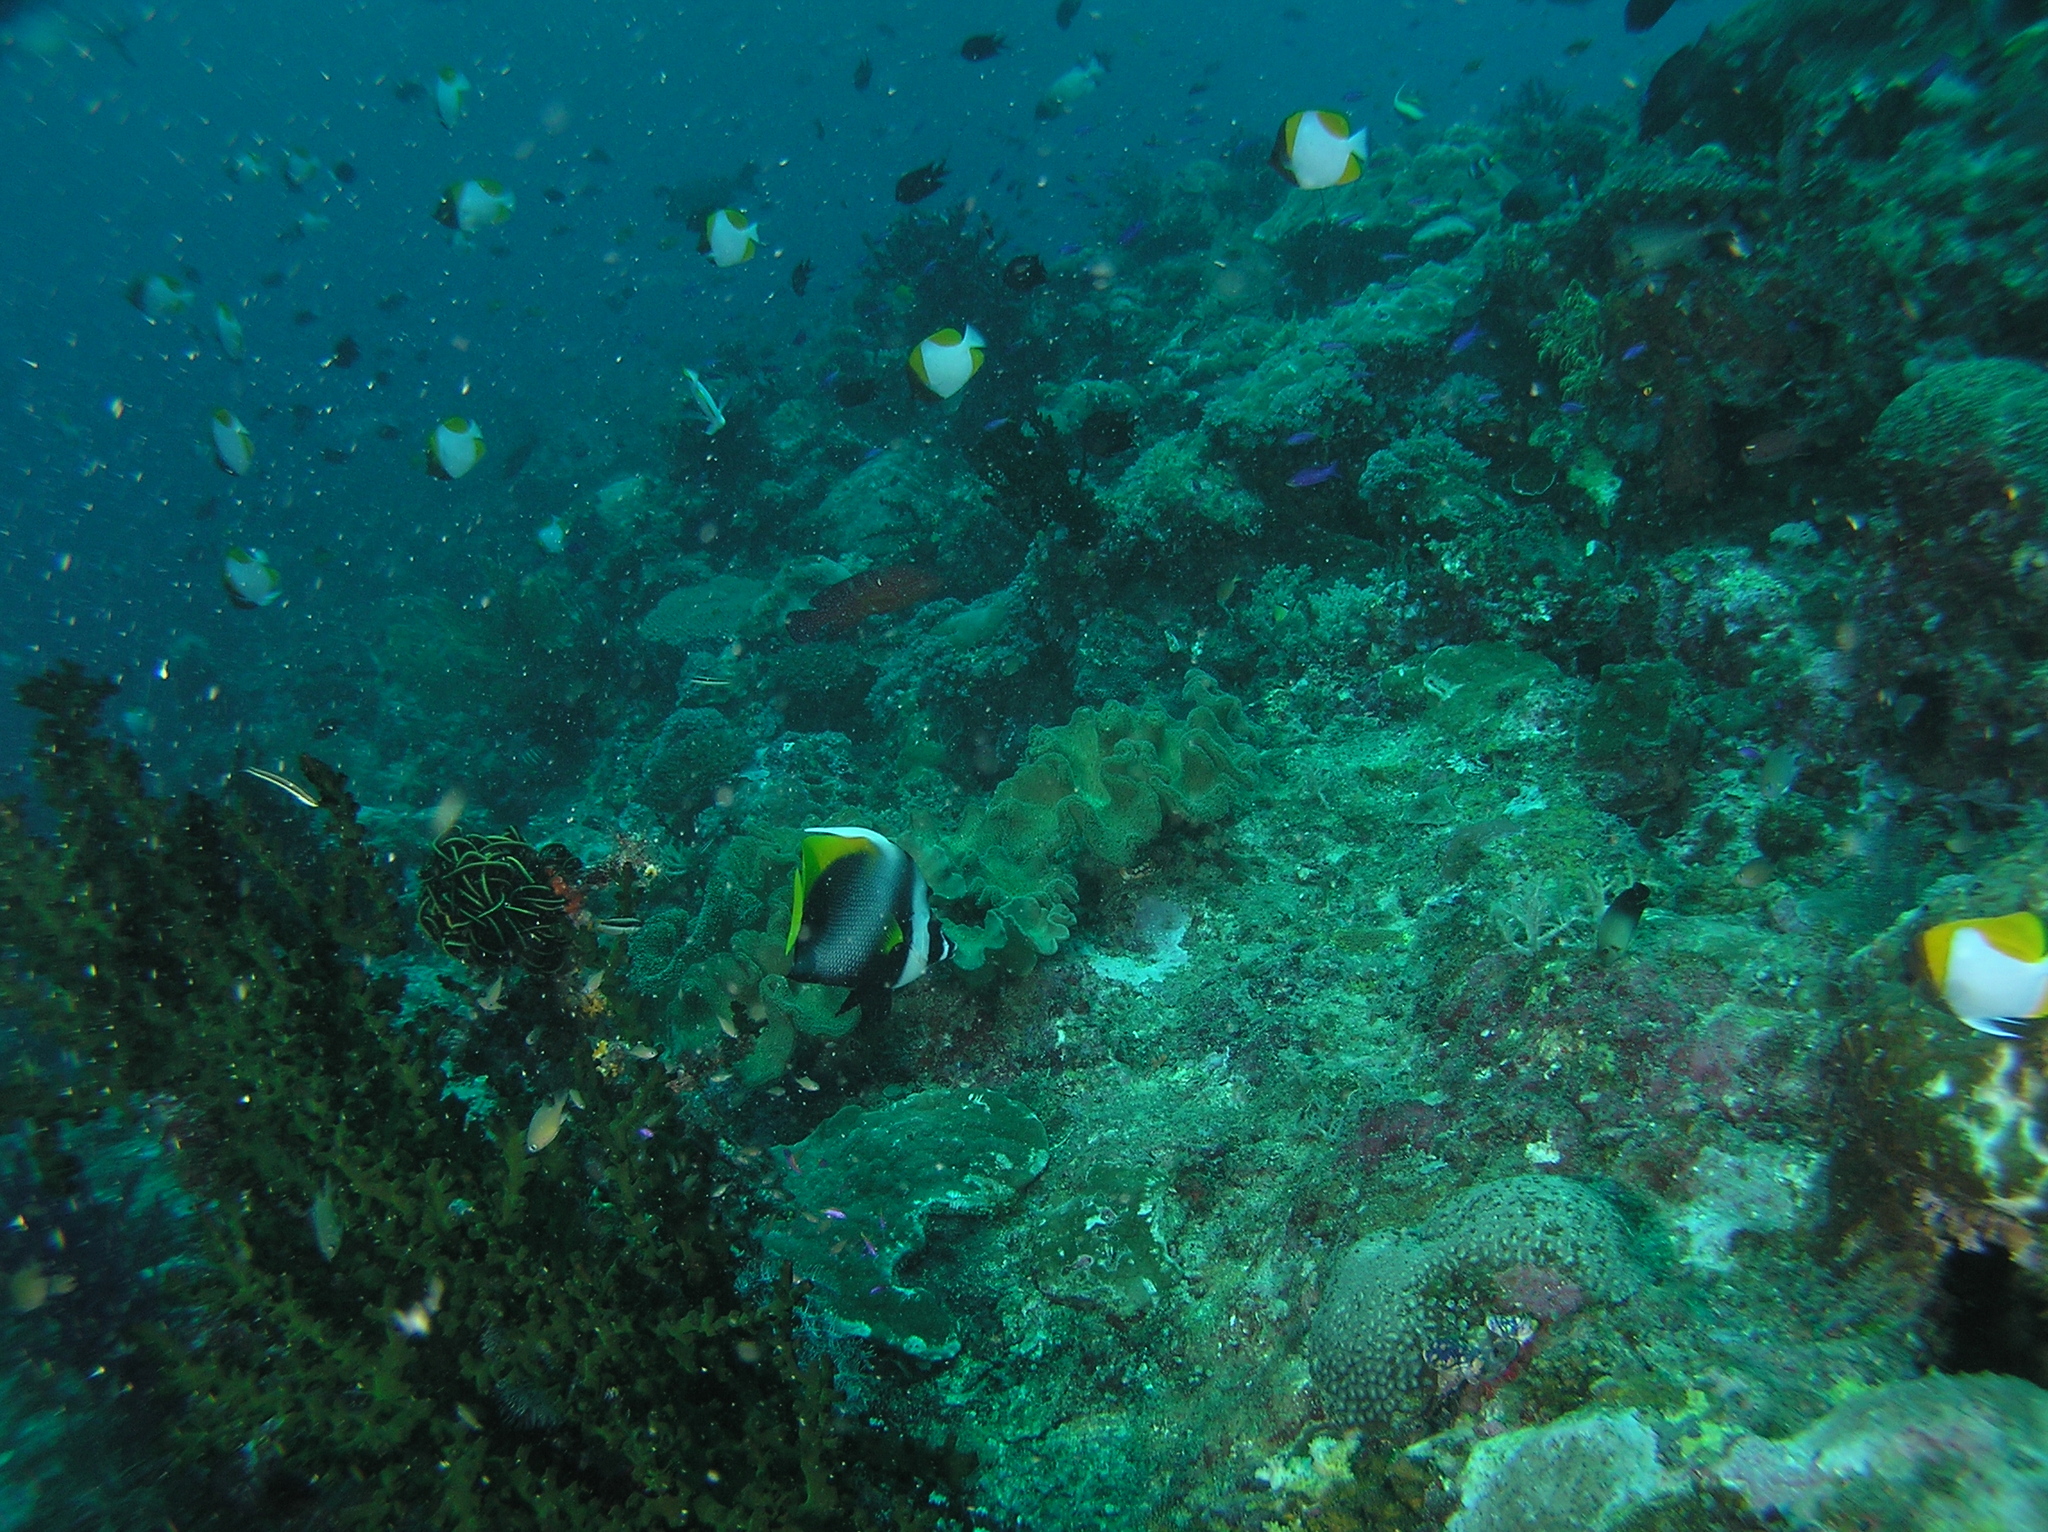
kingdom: Animalia
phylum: Chordata
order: Perciformes
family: Chaetodontidae
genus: Heniochus
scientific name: Heniochus singularius
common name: Singular bannerfish
